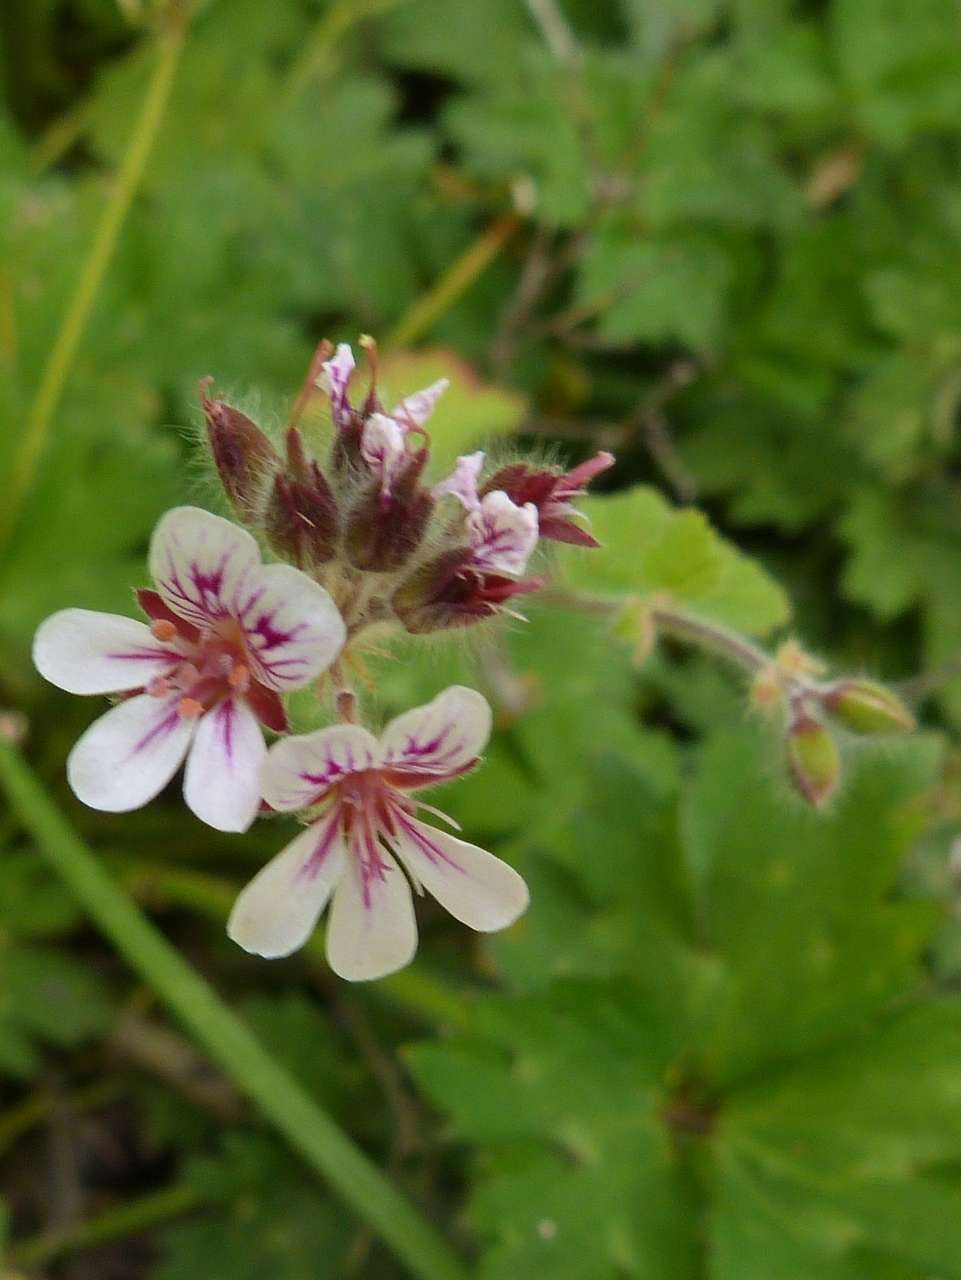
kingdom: Plantae
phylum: Tracheophyta
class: Magnoliopsida
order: Geraniales
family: Geraniaceae
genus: Pelargonium
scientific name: Pelargonium australe
